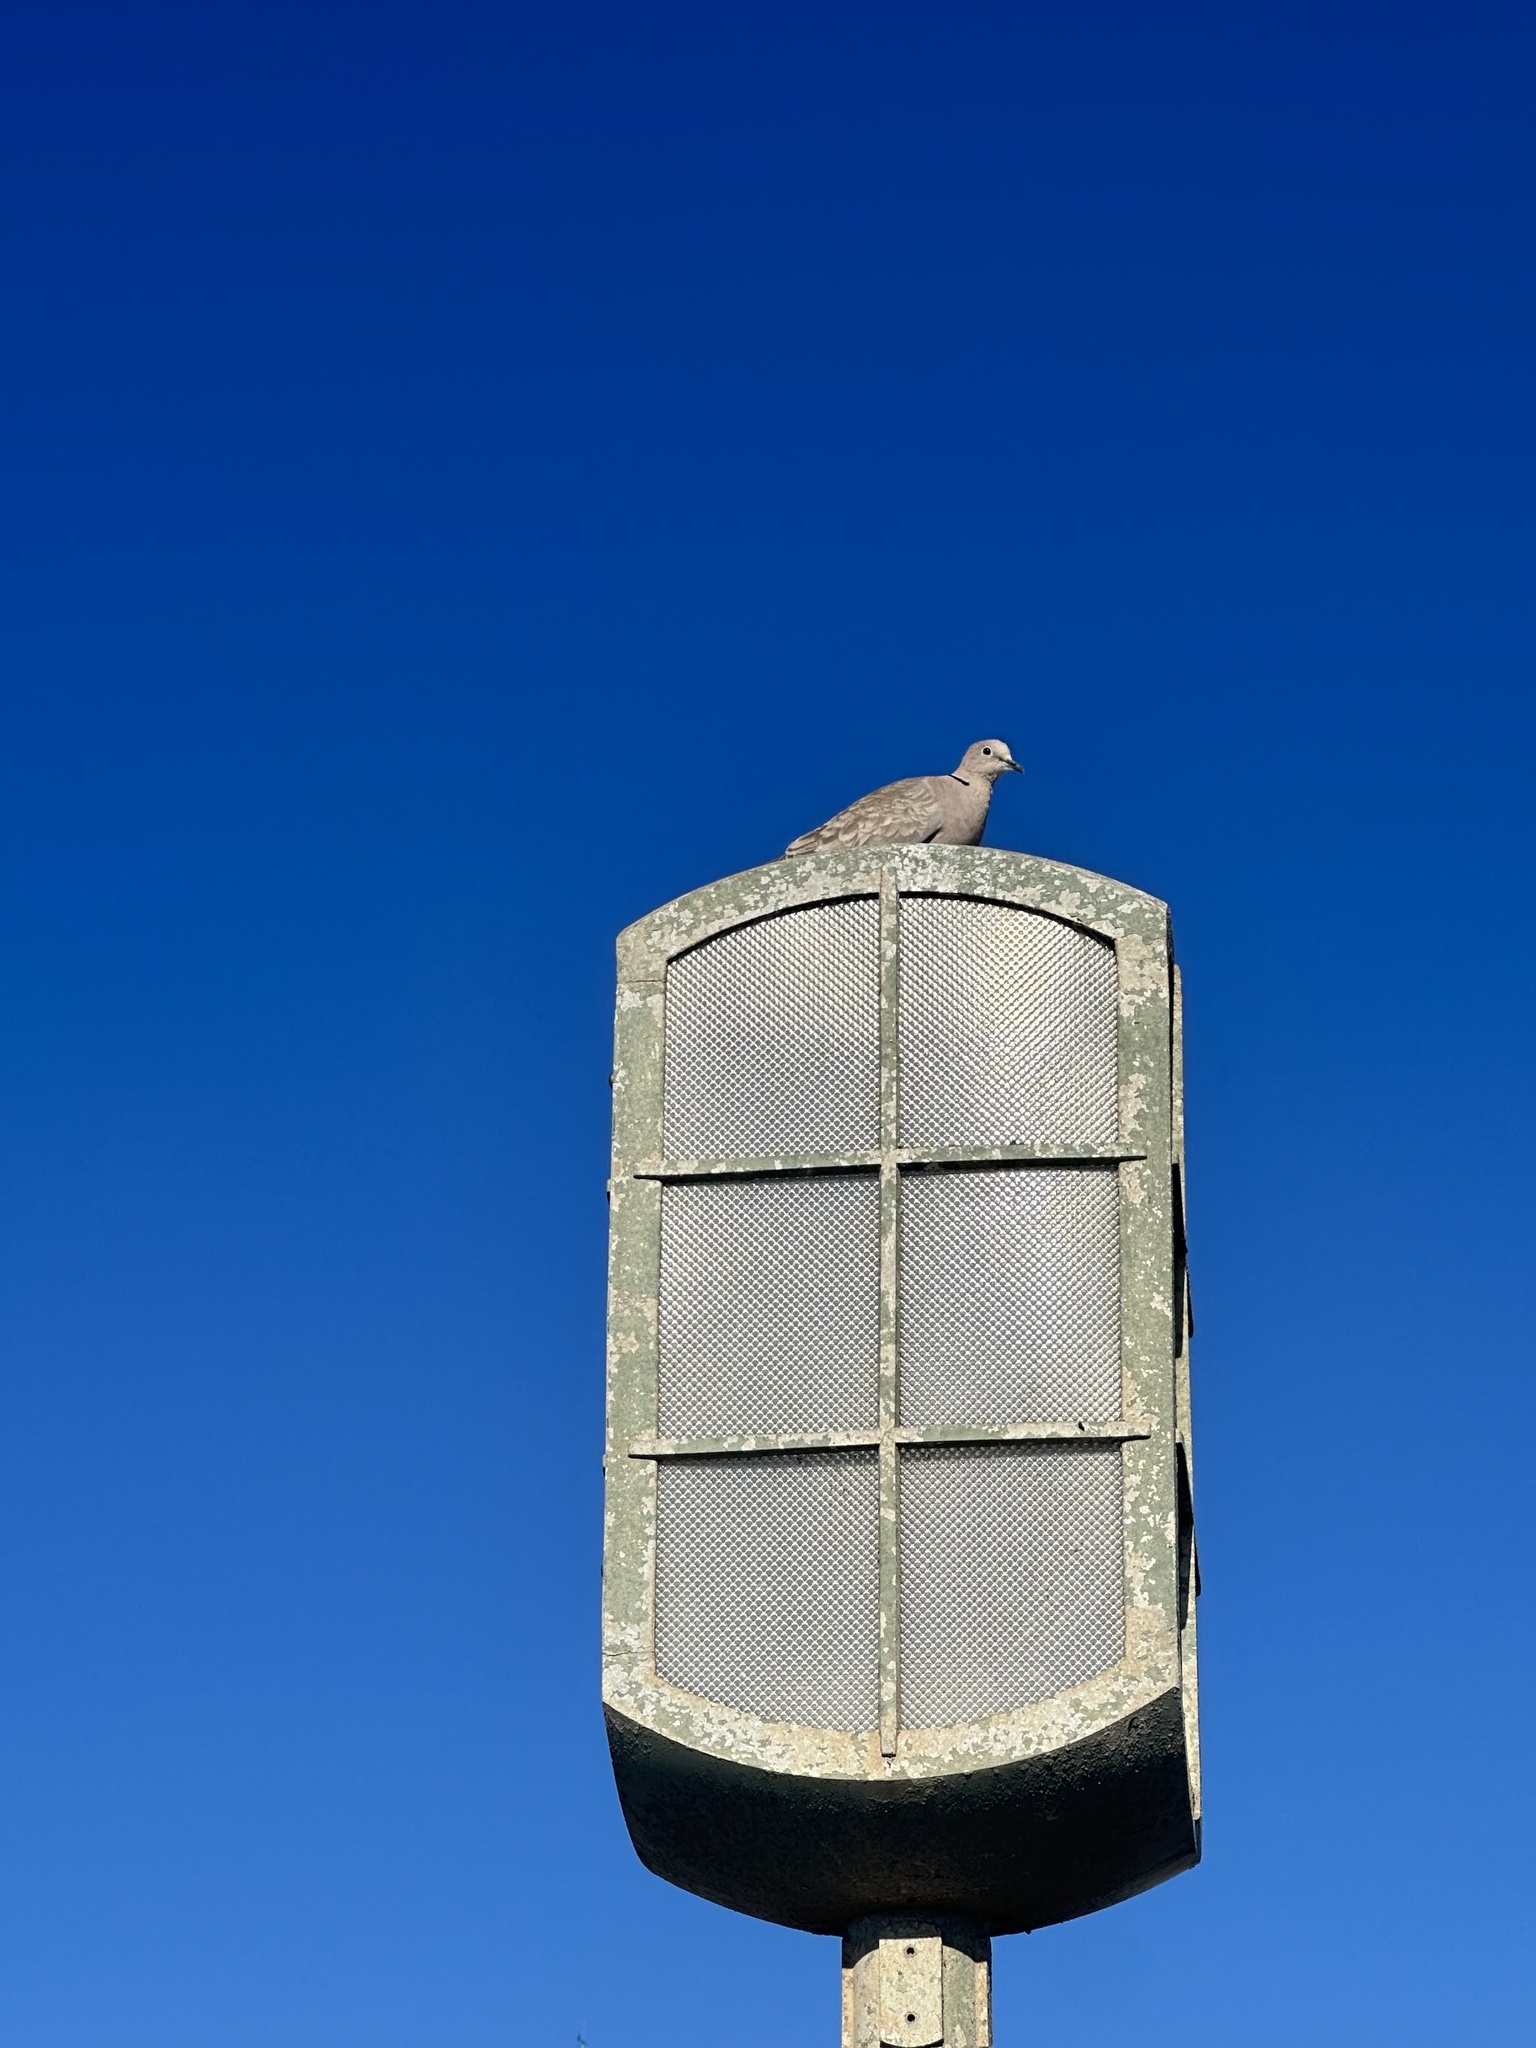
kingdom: Animalia
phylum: Chordata
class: Aves
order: Columbiformes
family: Columbidae
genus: Streptopelia
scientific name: Streptopelia decaocto
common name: Eurasian collared dove
